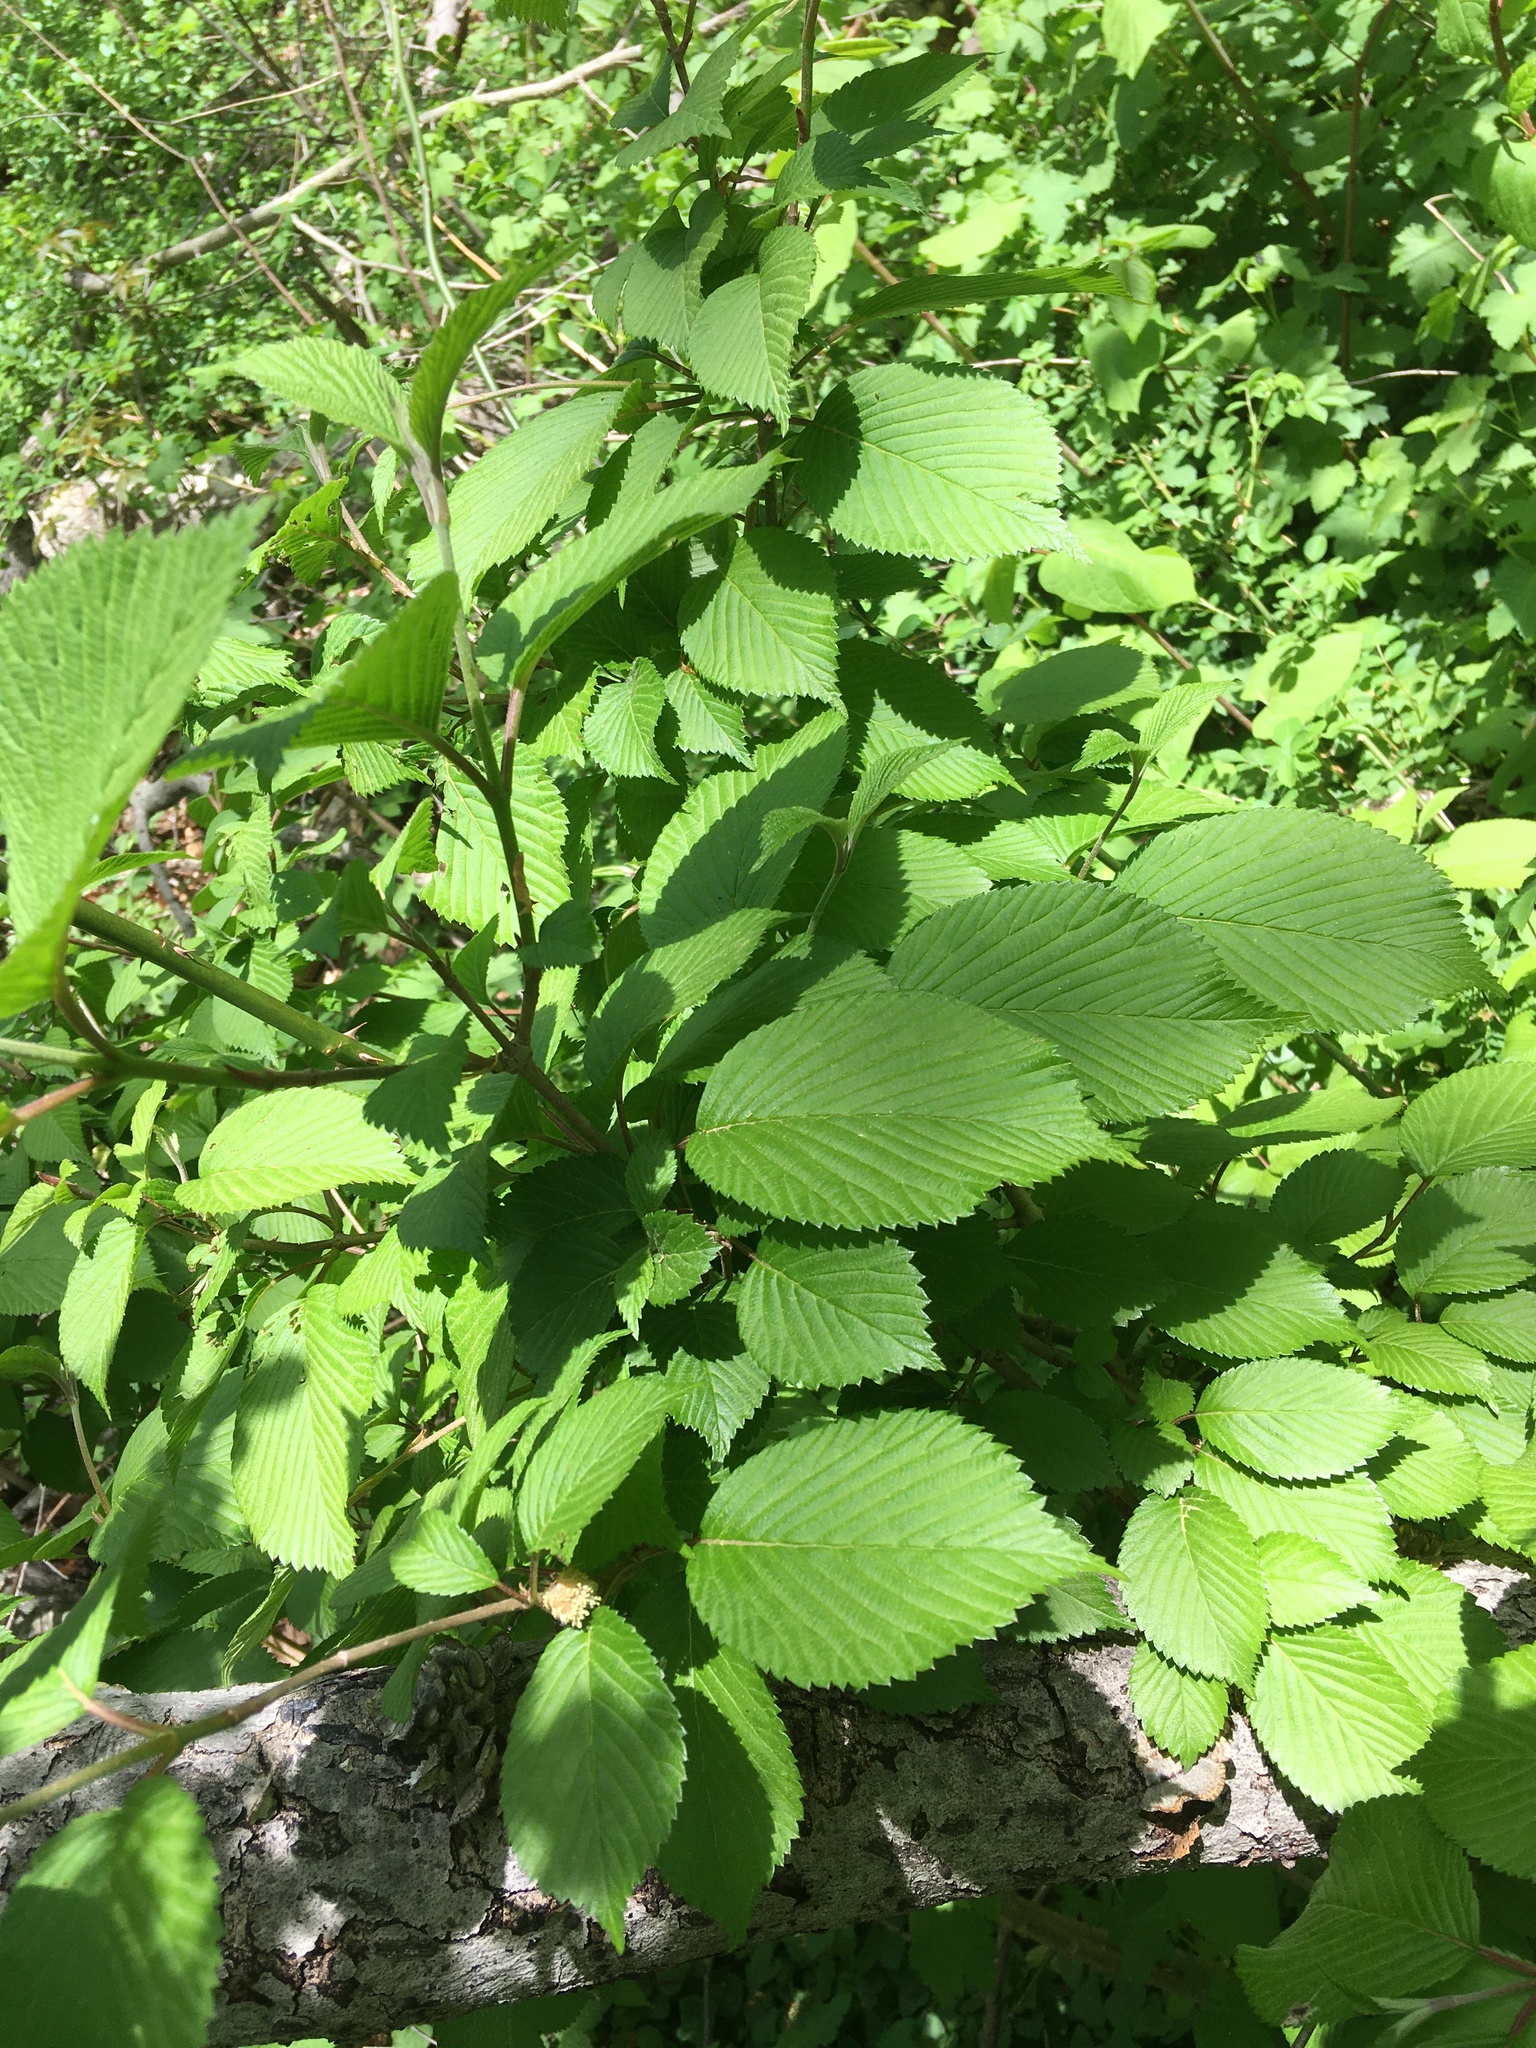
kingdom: Plantae
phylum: Tracheophyta
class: Magnoliopsida
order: Dipsacales
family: Viburnaceae
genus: Viburnum
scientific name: Viburnum plicatum
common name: Japanese snowball
